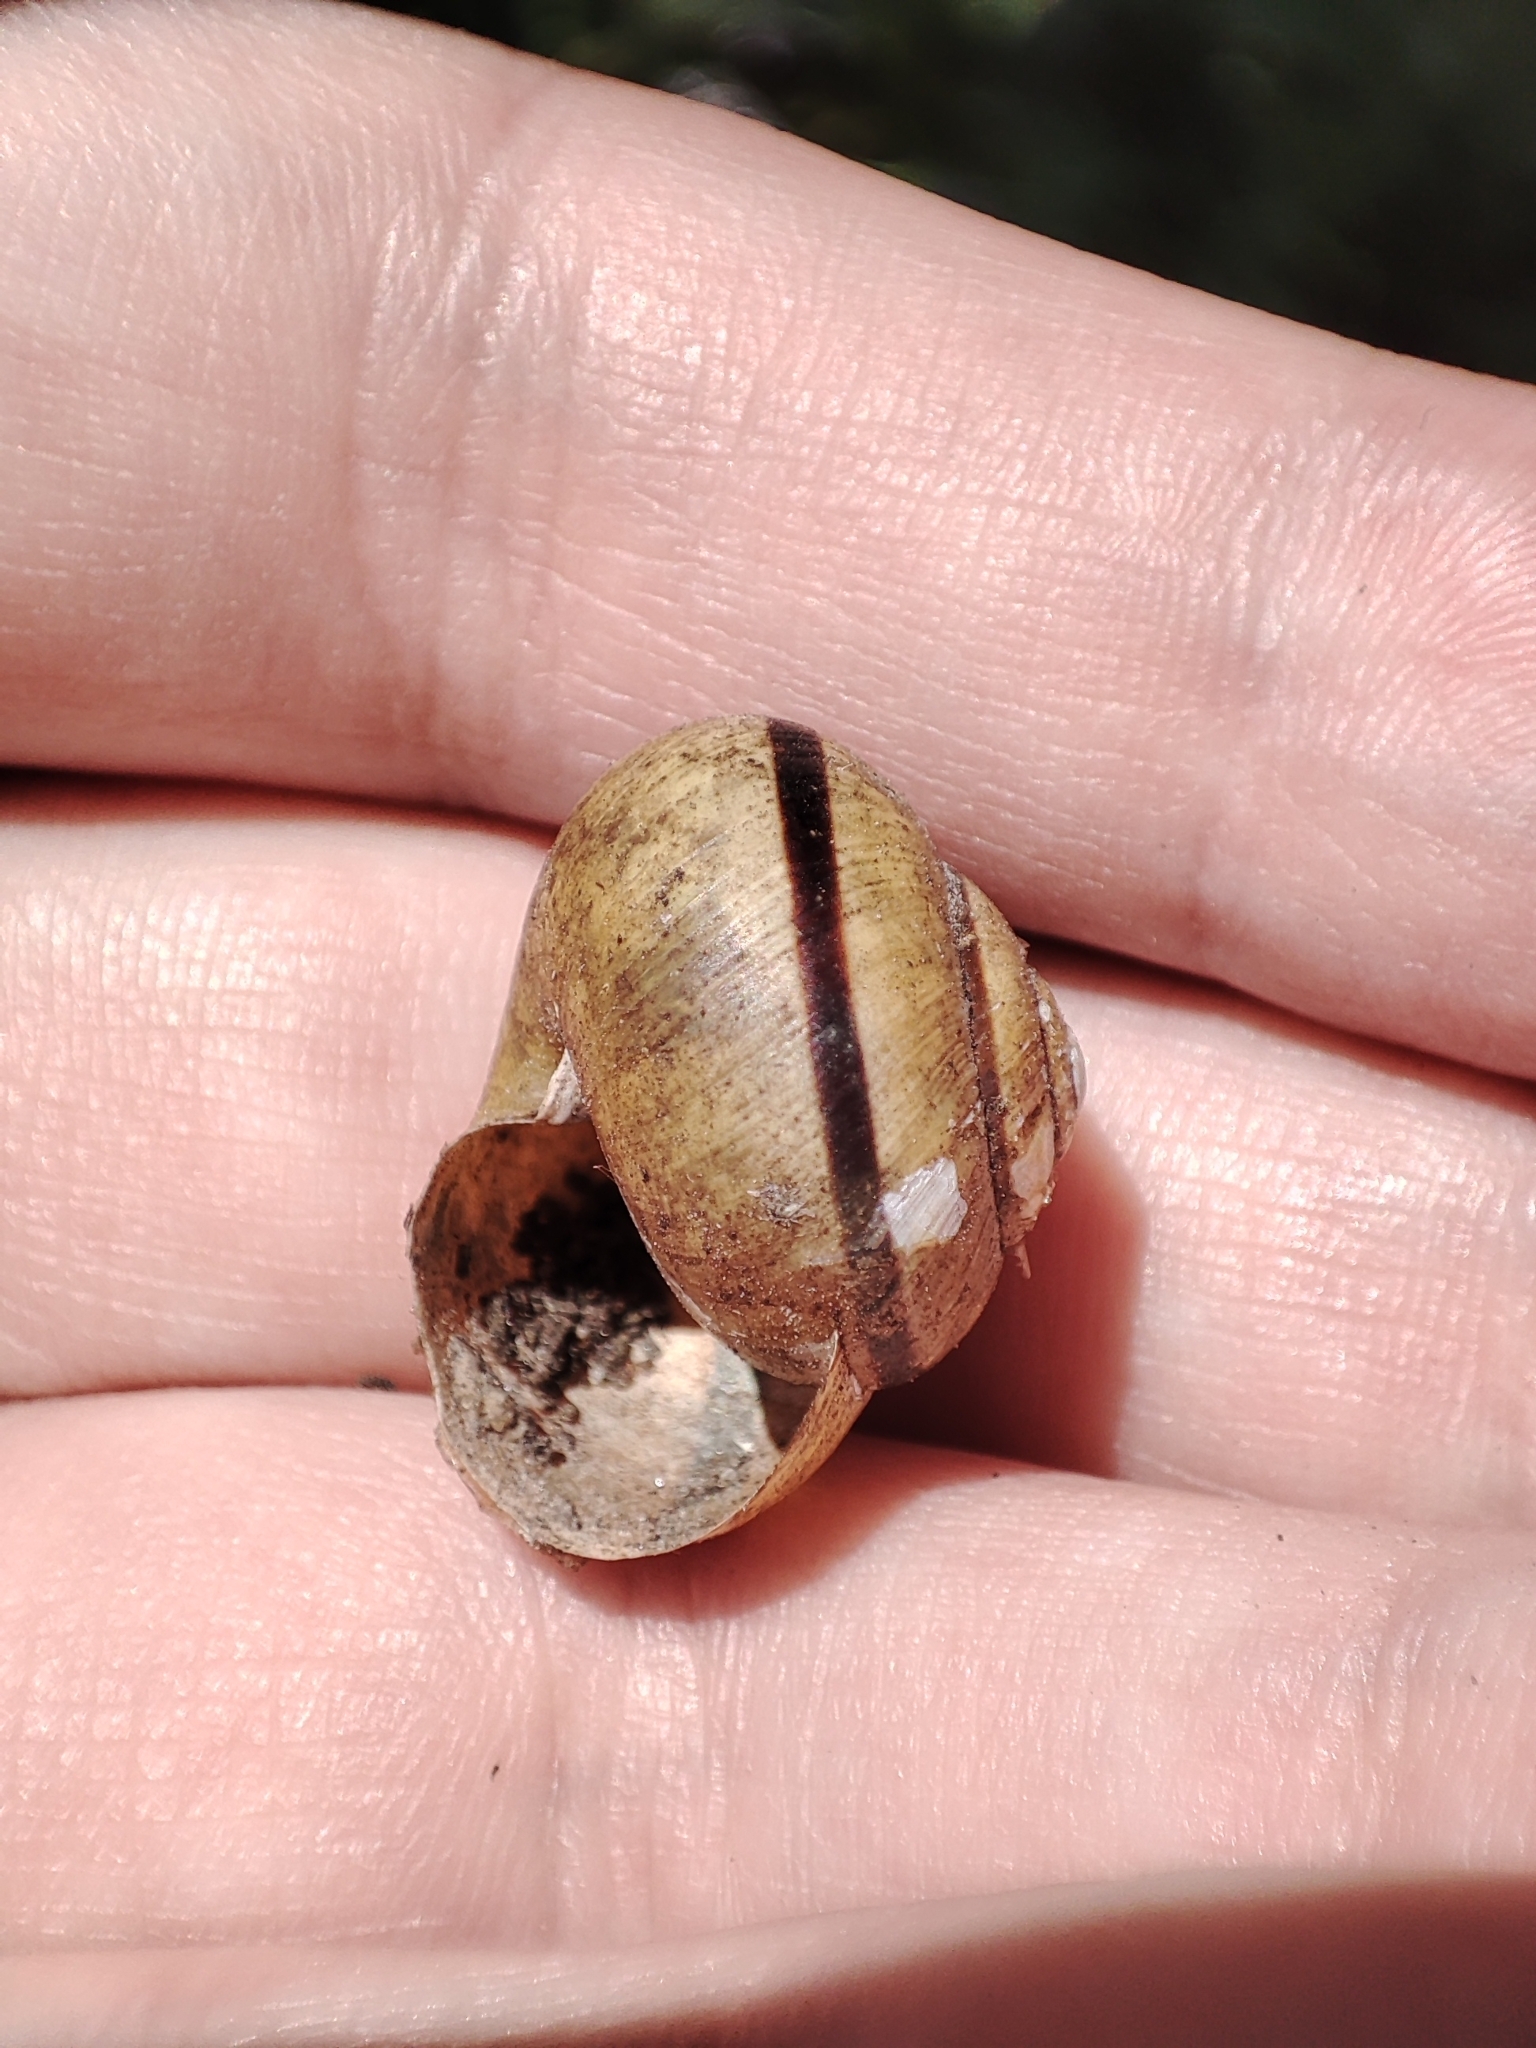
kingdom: Animalia
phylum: Mollusca
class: Gastropoda
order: Stylommatophora
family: Helicidae
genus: Cepaea
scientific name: Cepaea nemoralis
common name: Grovesnail
